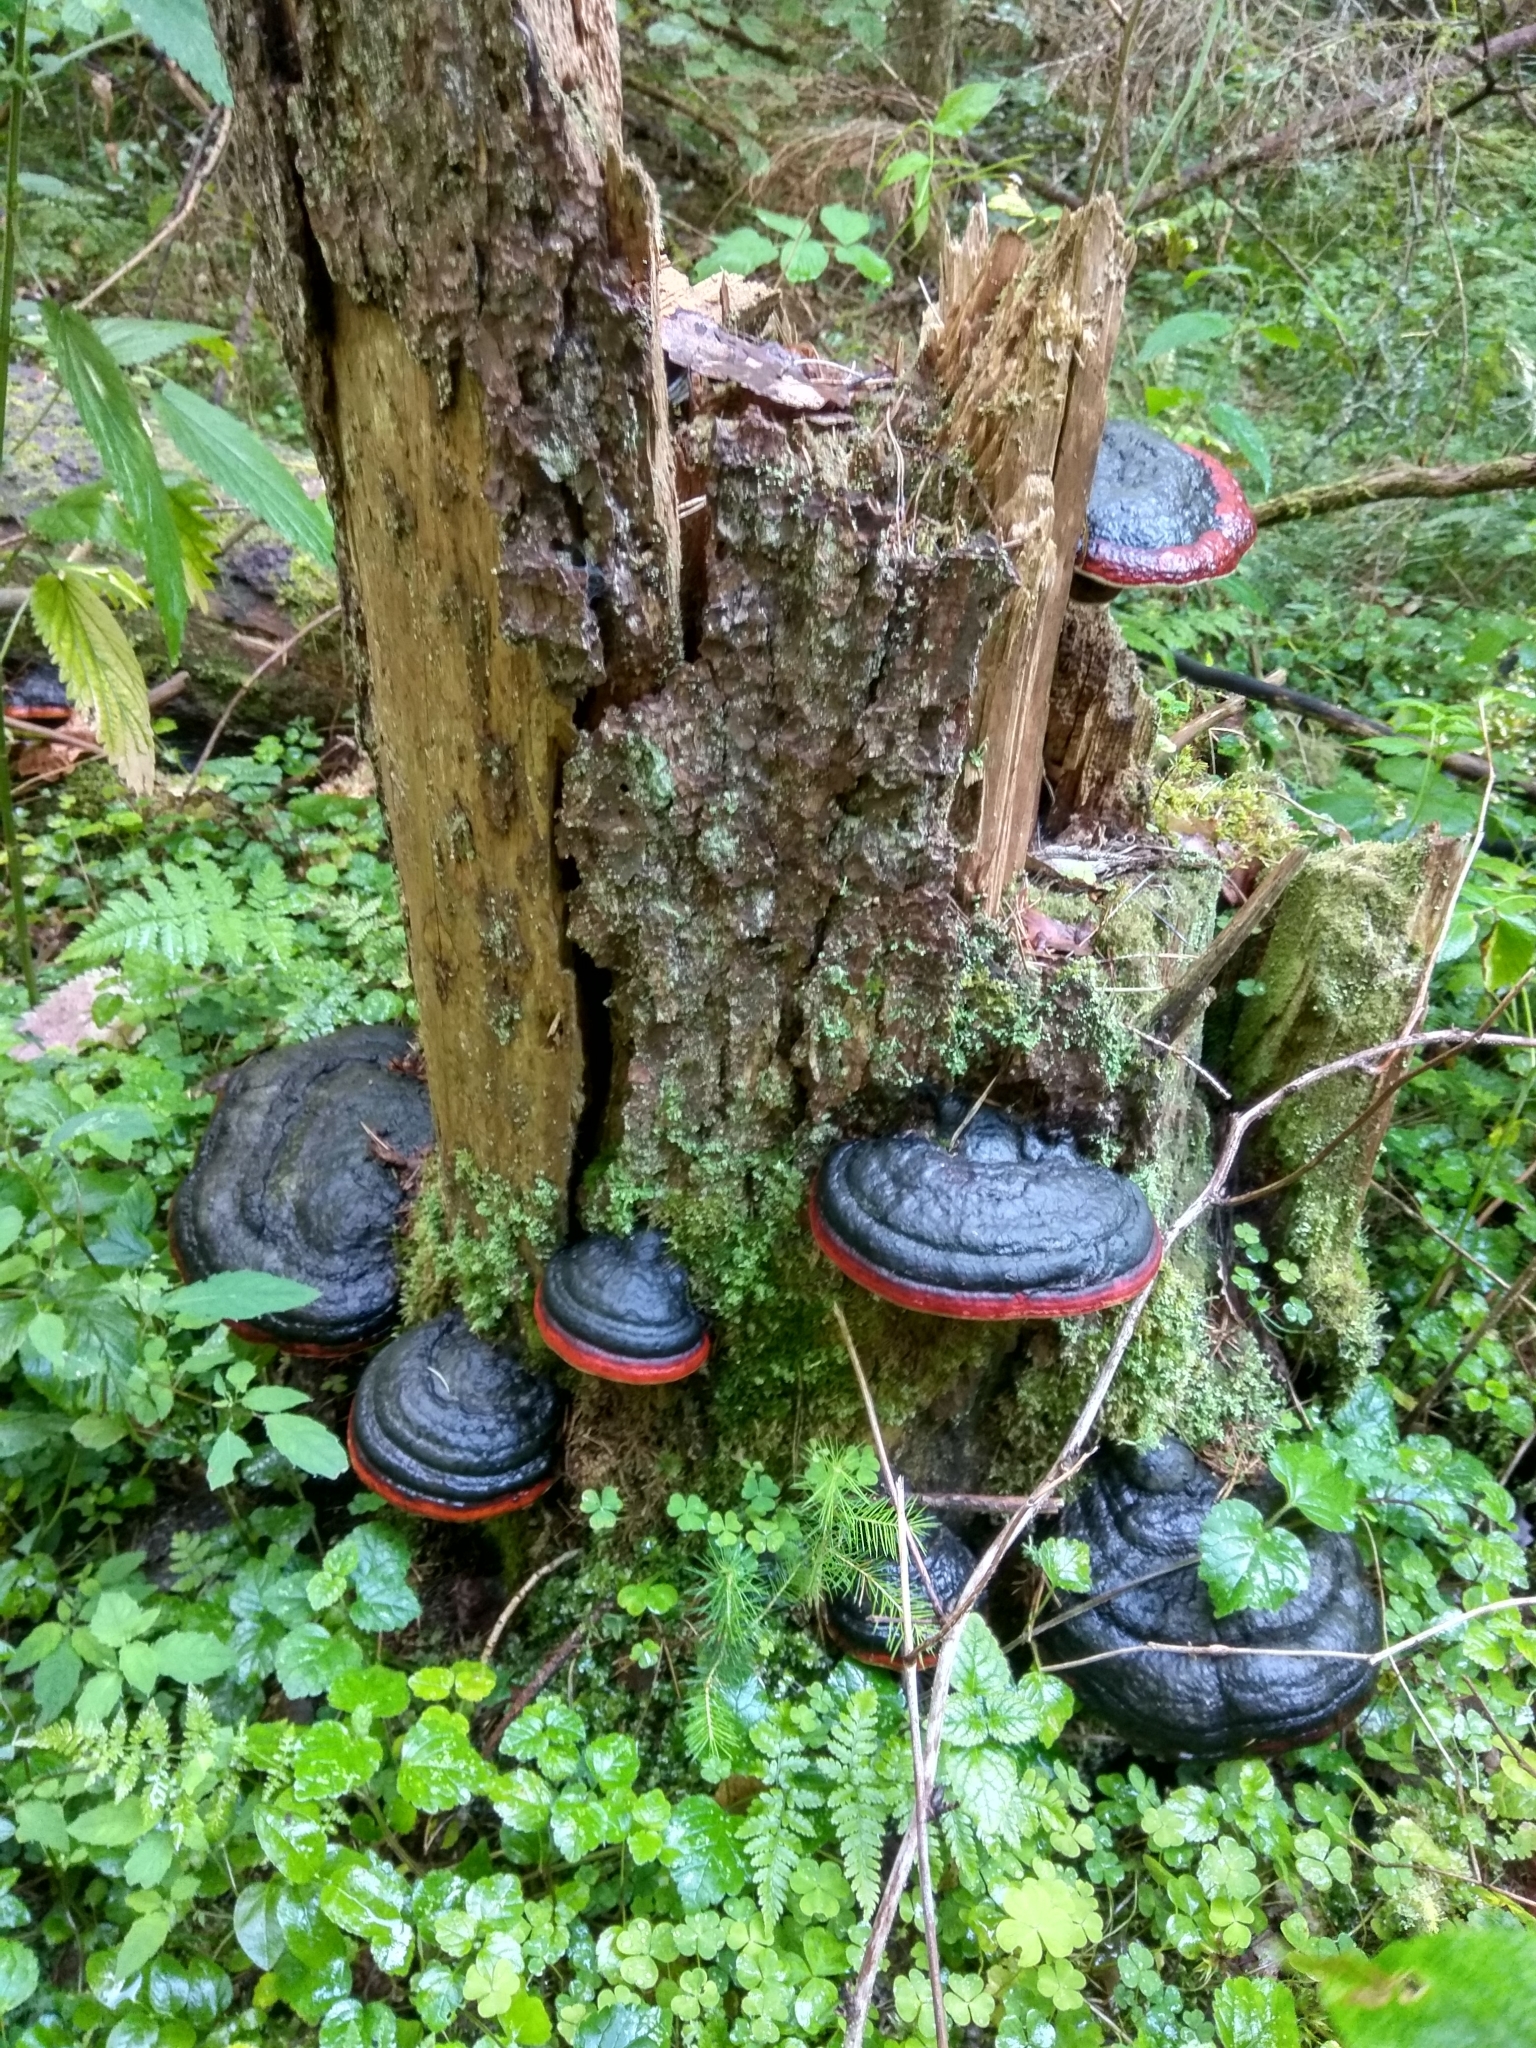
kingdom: Fungi
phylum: Basidiomycota
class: Agaricomycetes
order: Polyporales
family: Fomitopsidaceae
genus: Fomitopsis
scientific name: Fomitopsis pinicola
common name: Red-belted bracket
